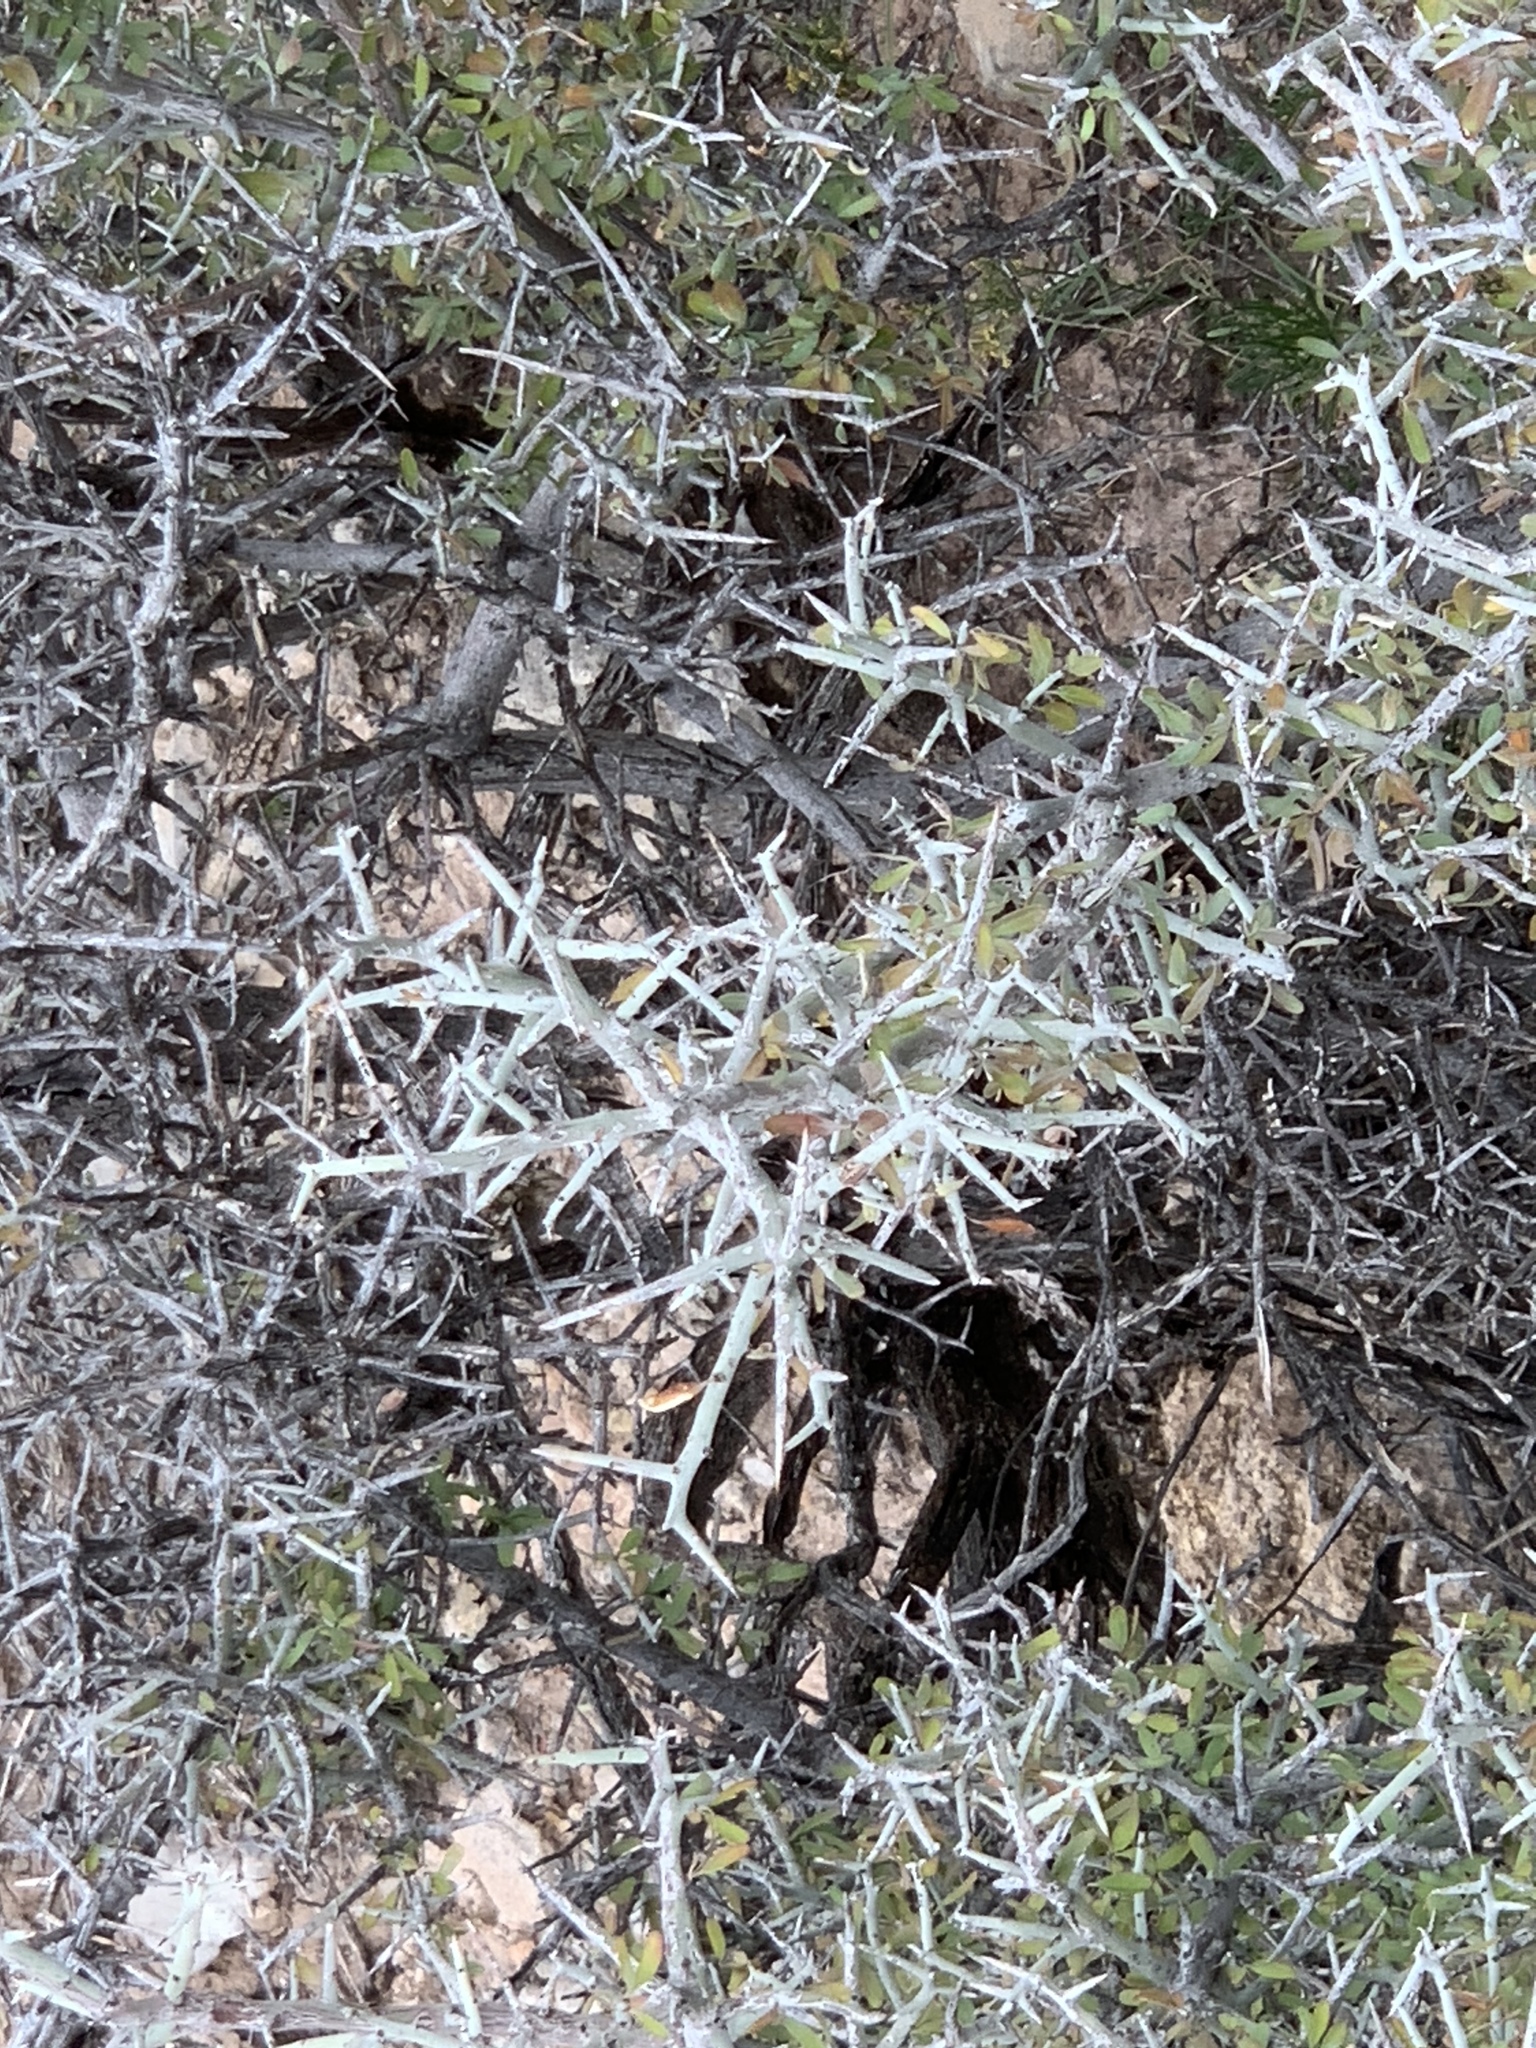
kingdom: Plantae
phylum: Tracheophyta
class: Magnoliopsida
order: Rosales
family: Rhamnaceae
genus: Sarcomphalus
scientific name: Sarcomphalus obtusifolius
